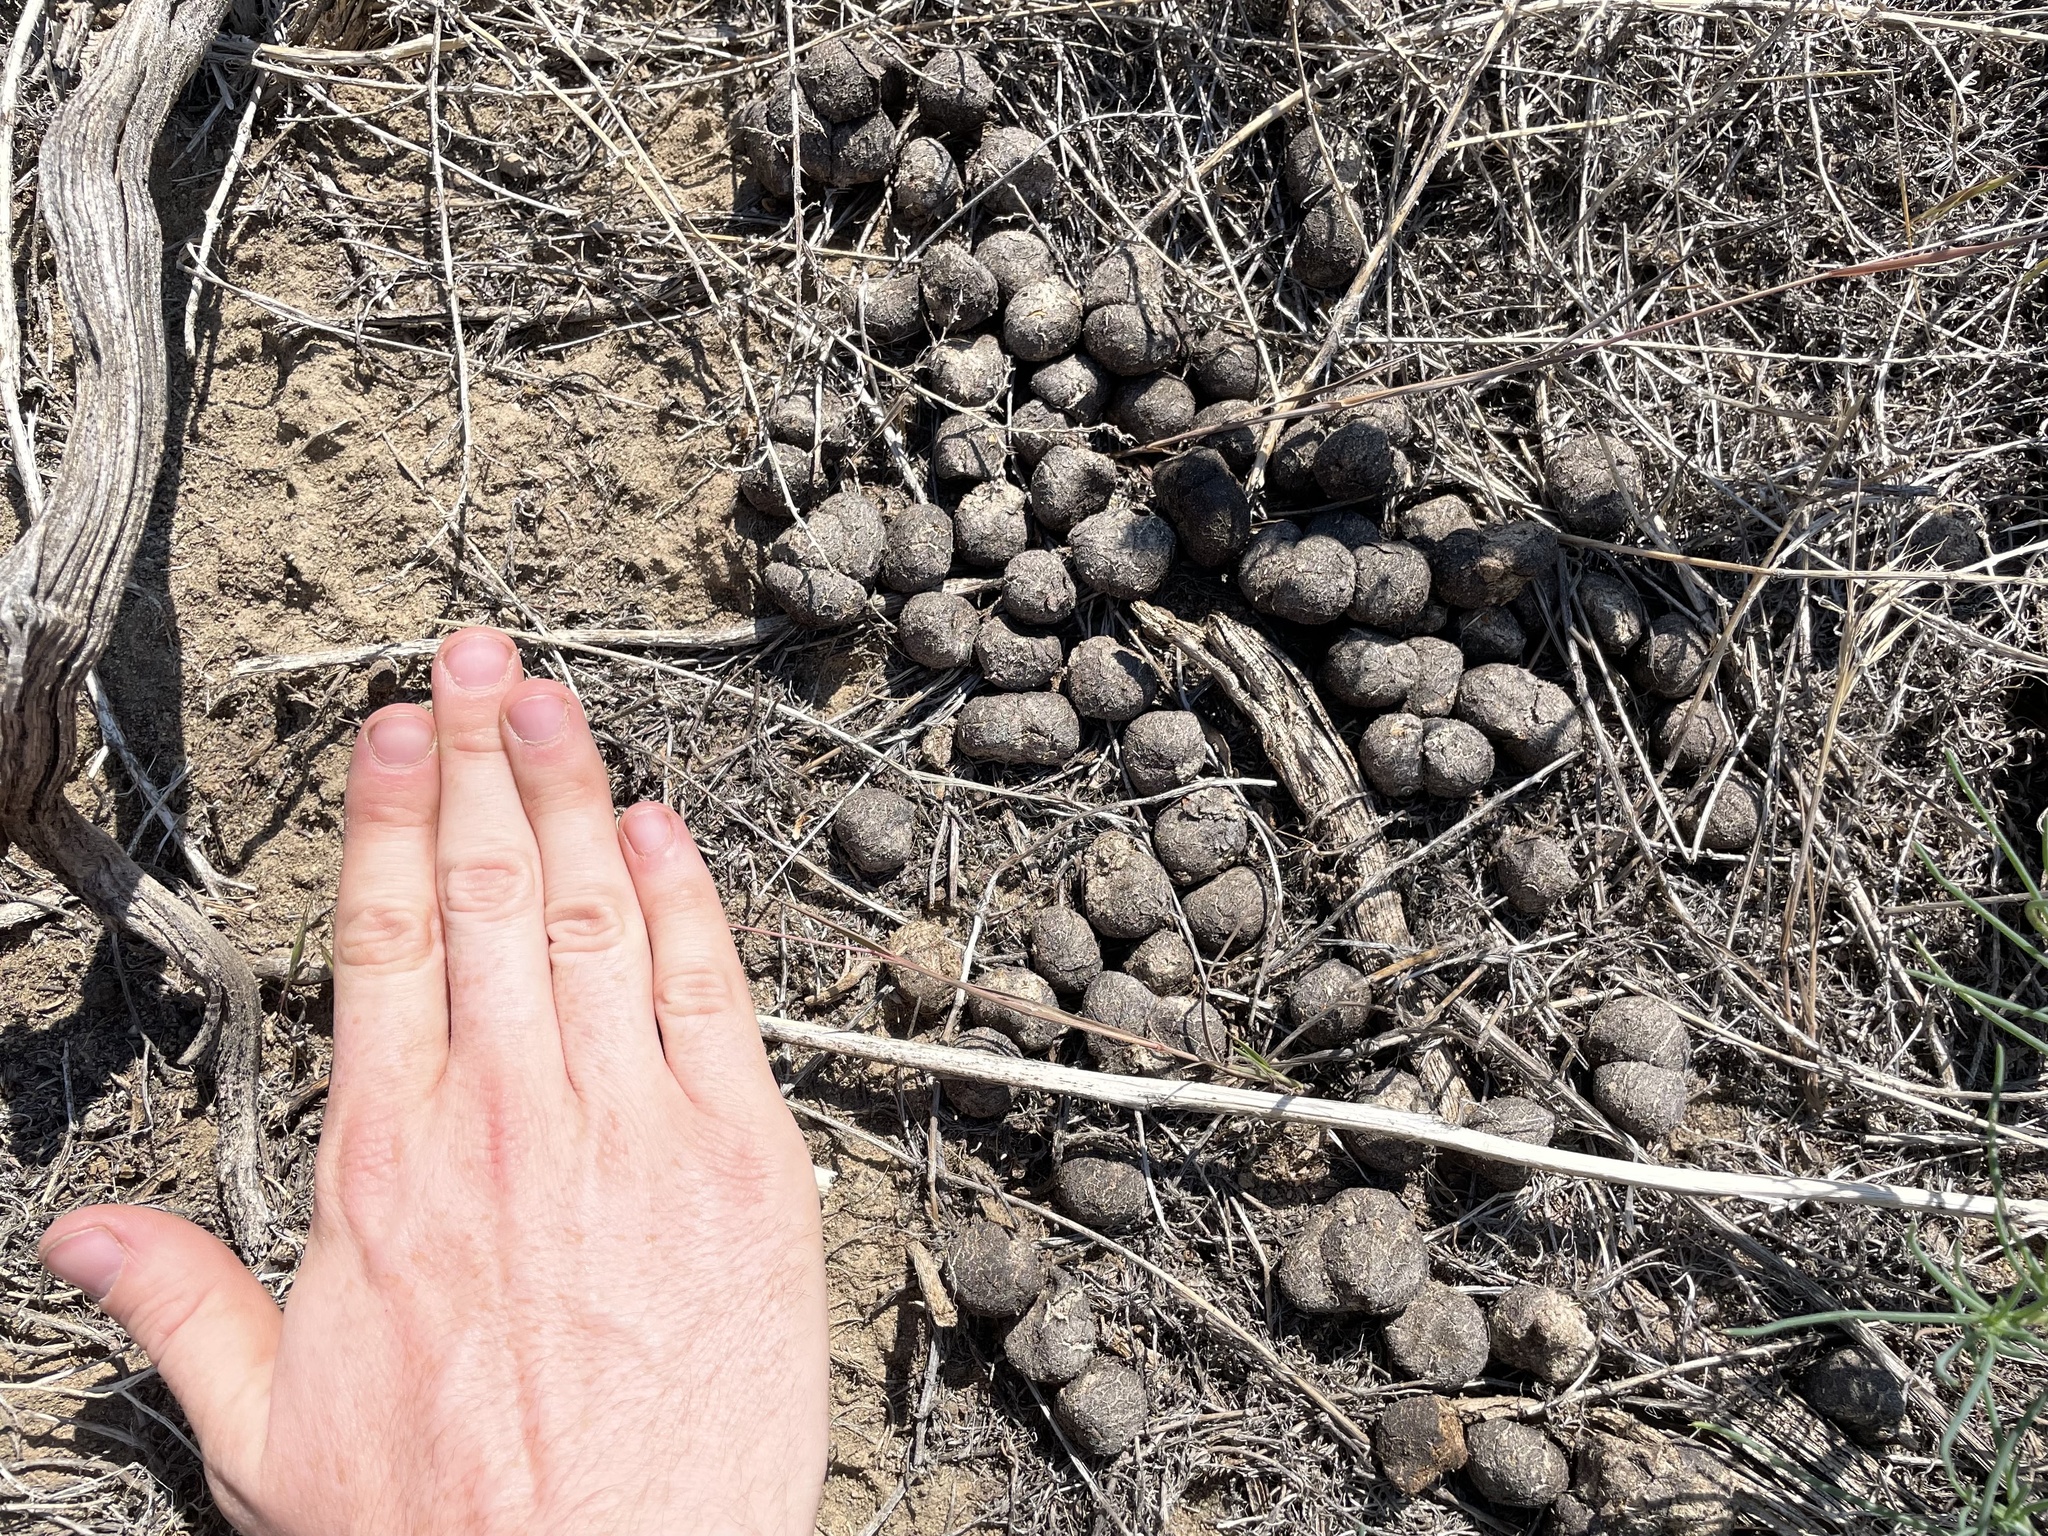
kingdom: Animalia
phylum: Chordata
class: Mammalia
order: Artiodactyla
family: Cervidae
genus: Cervus
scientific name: Cervus elaphus
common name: Red deer
